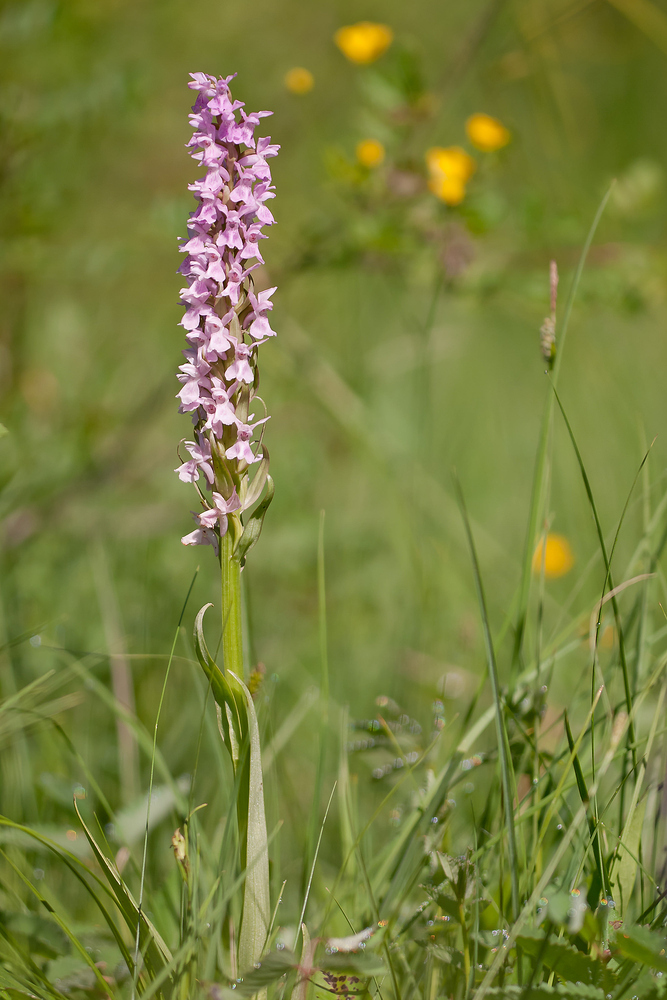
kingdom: Plantae
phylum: Tracheophyta
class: Liliopsida
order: Asparagales
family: Orchidaceae
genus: Dactylorhiza
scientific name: Dactylorhiza elata
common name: Stately dactylorhiza
